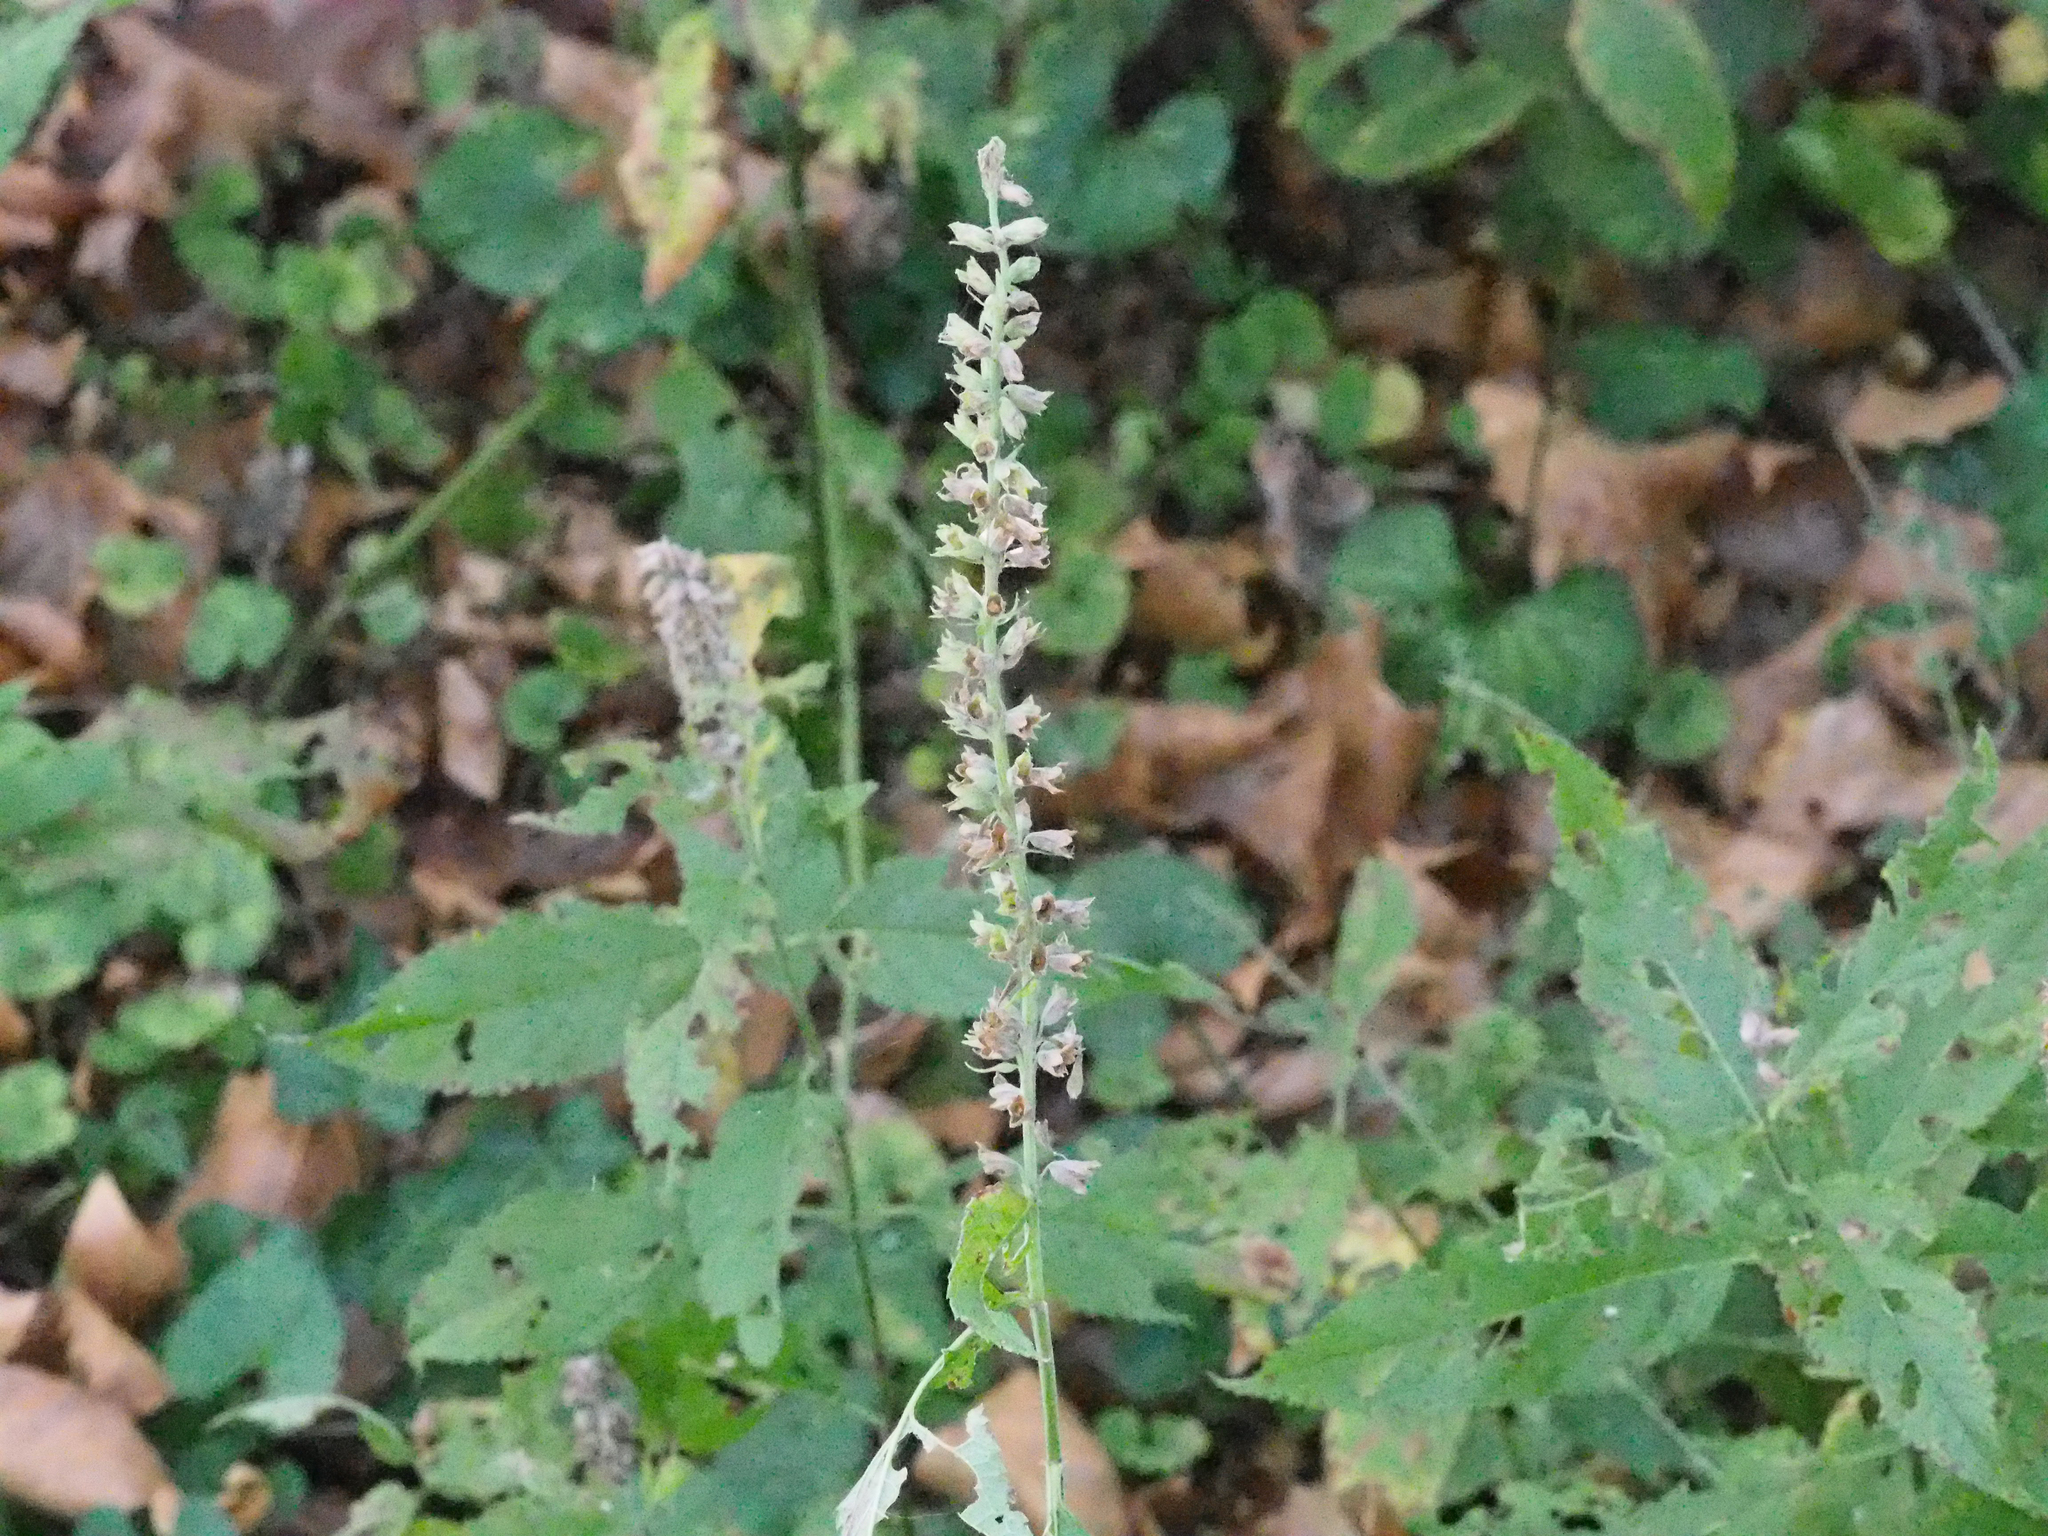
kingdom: Plantae
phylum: Tracheophyta
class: Magnoliopsida
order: Lamiales
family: Lamiaceae
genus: Teucrium
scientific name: Teucrium canadense
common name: American germander
